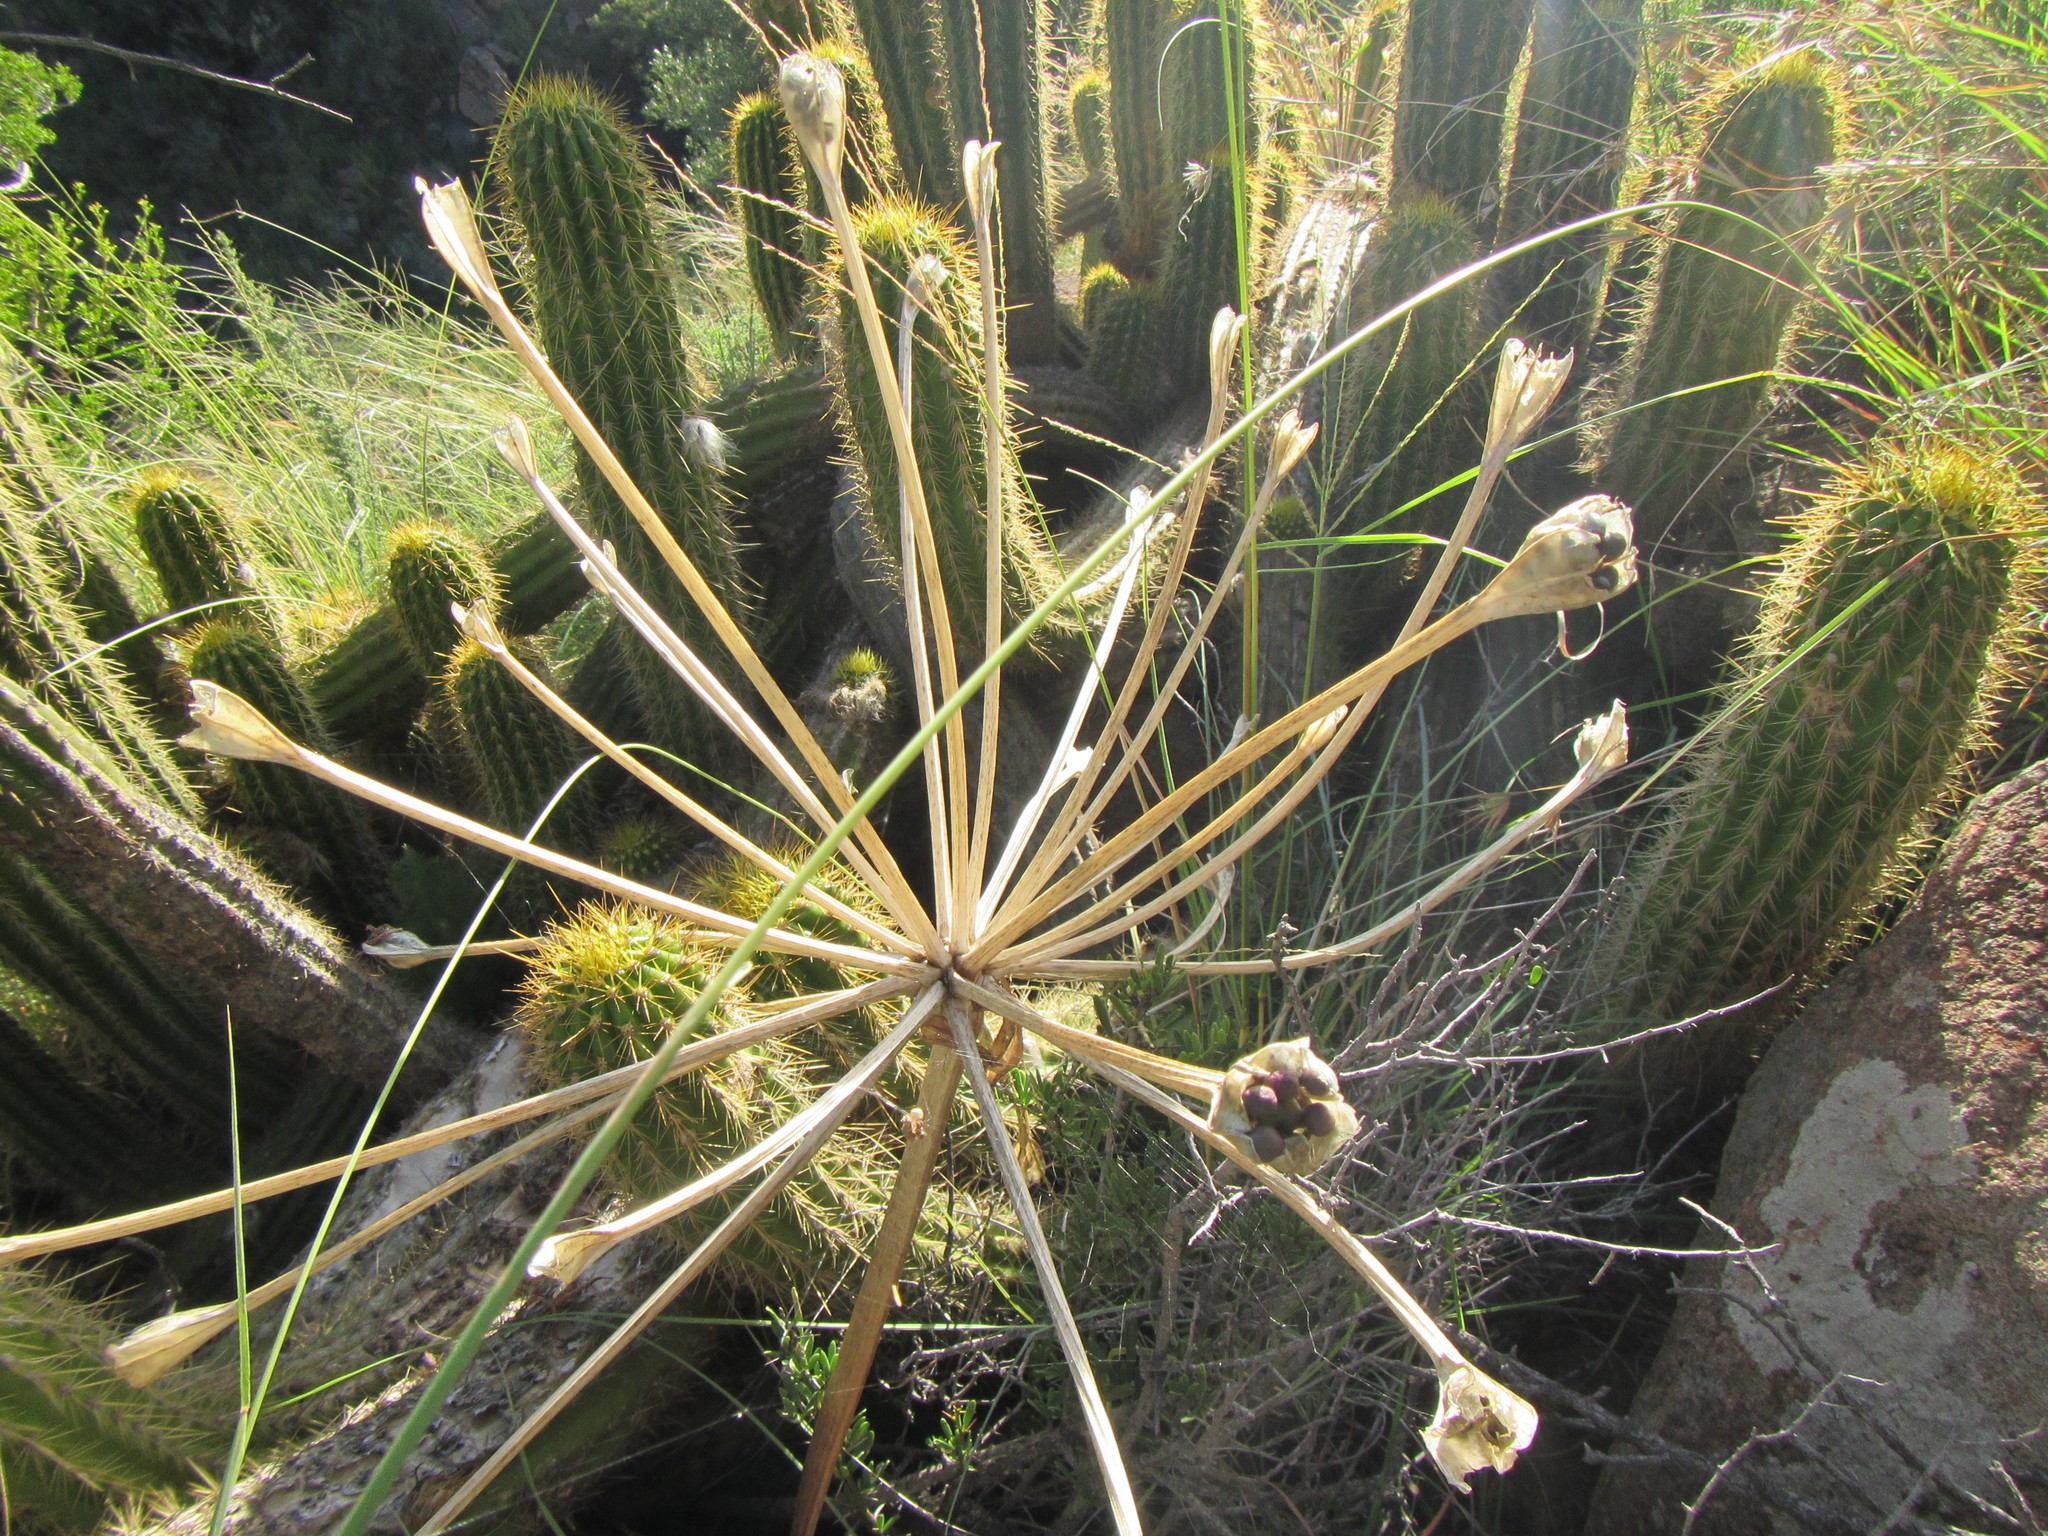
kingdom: Plantae
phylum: Tracheophyta
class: Liliopsida
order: Asparagales
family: Amaryllidaceae
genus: Brunsvigia
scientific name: Brunsvigia radulosa
